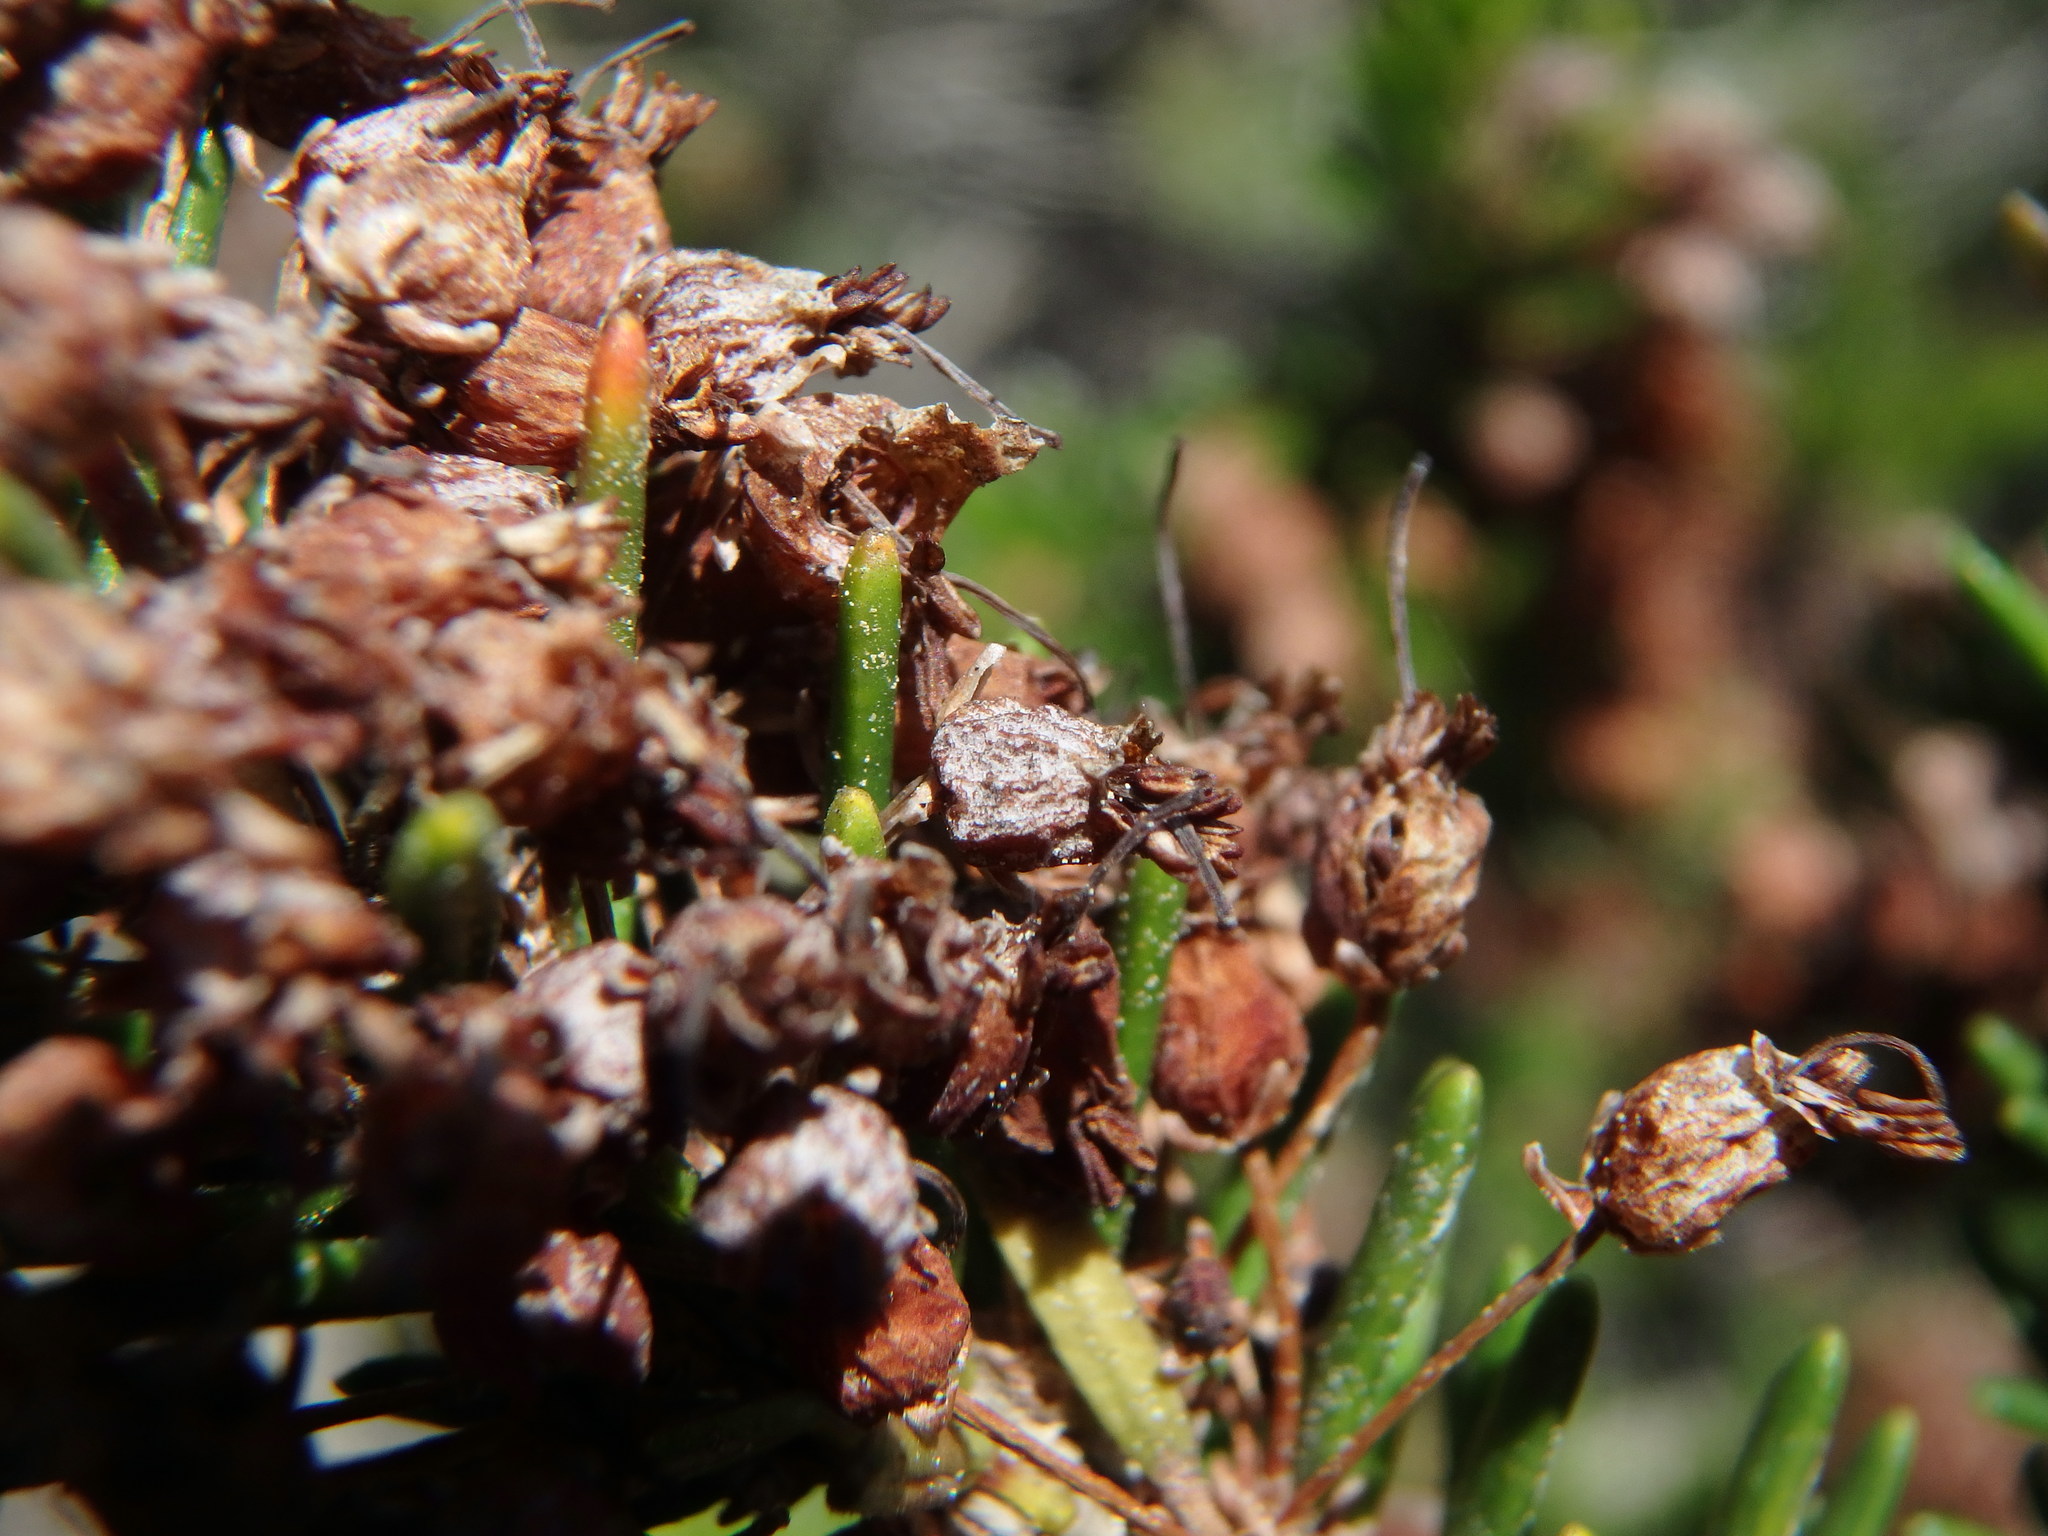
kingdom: Plantae
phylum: Tracheophyta
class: Magnoliopsida
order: Ericales
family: Ericaceae
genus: Erica
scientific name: Erica multiflora
